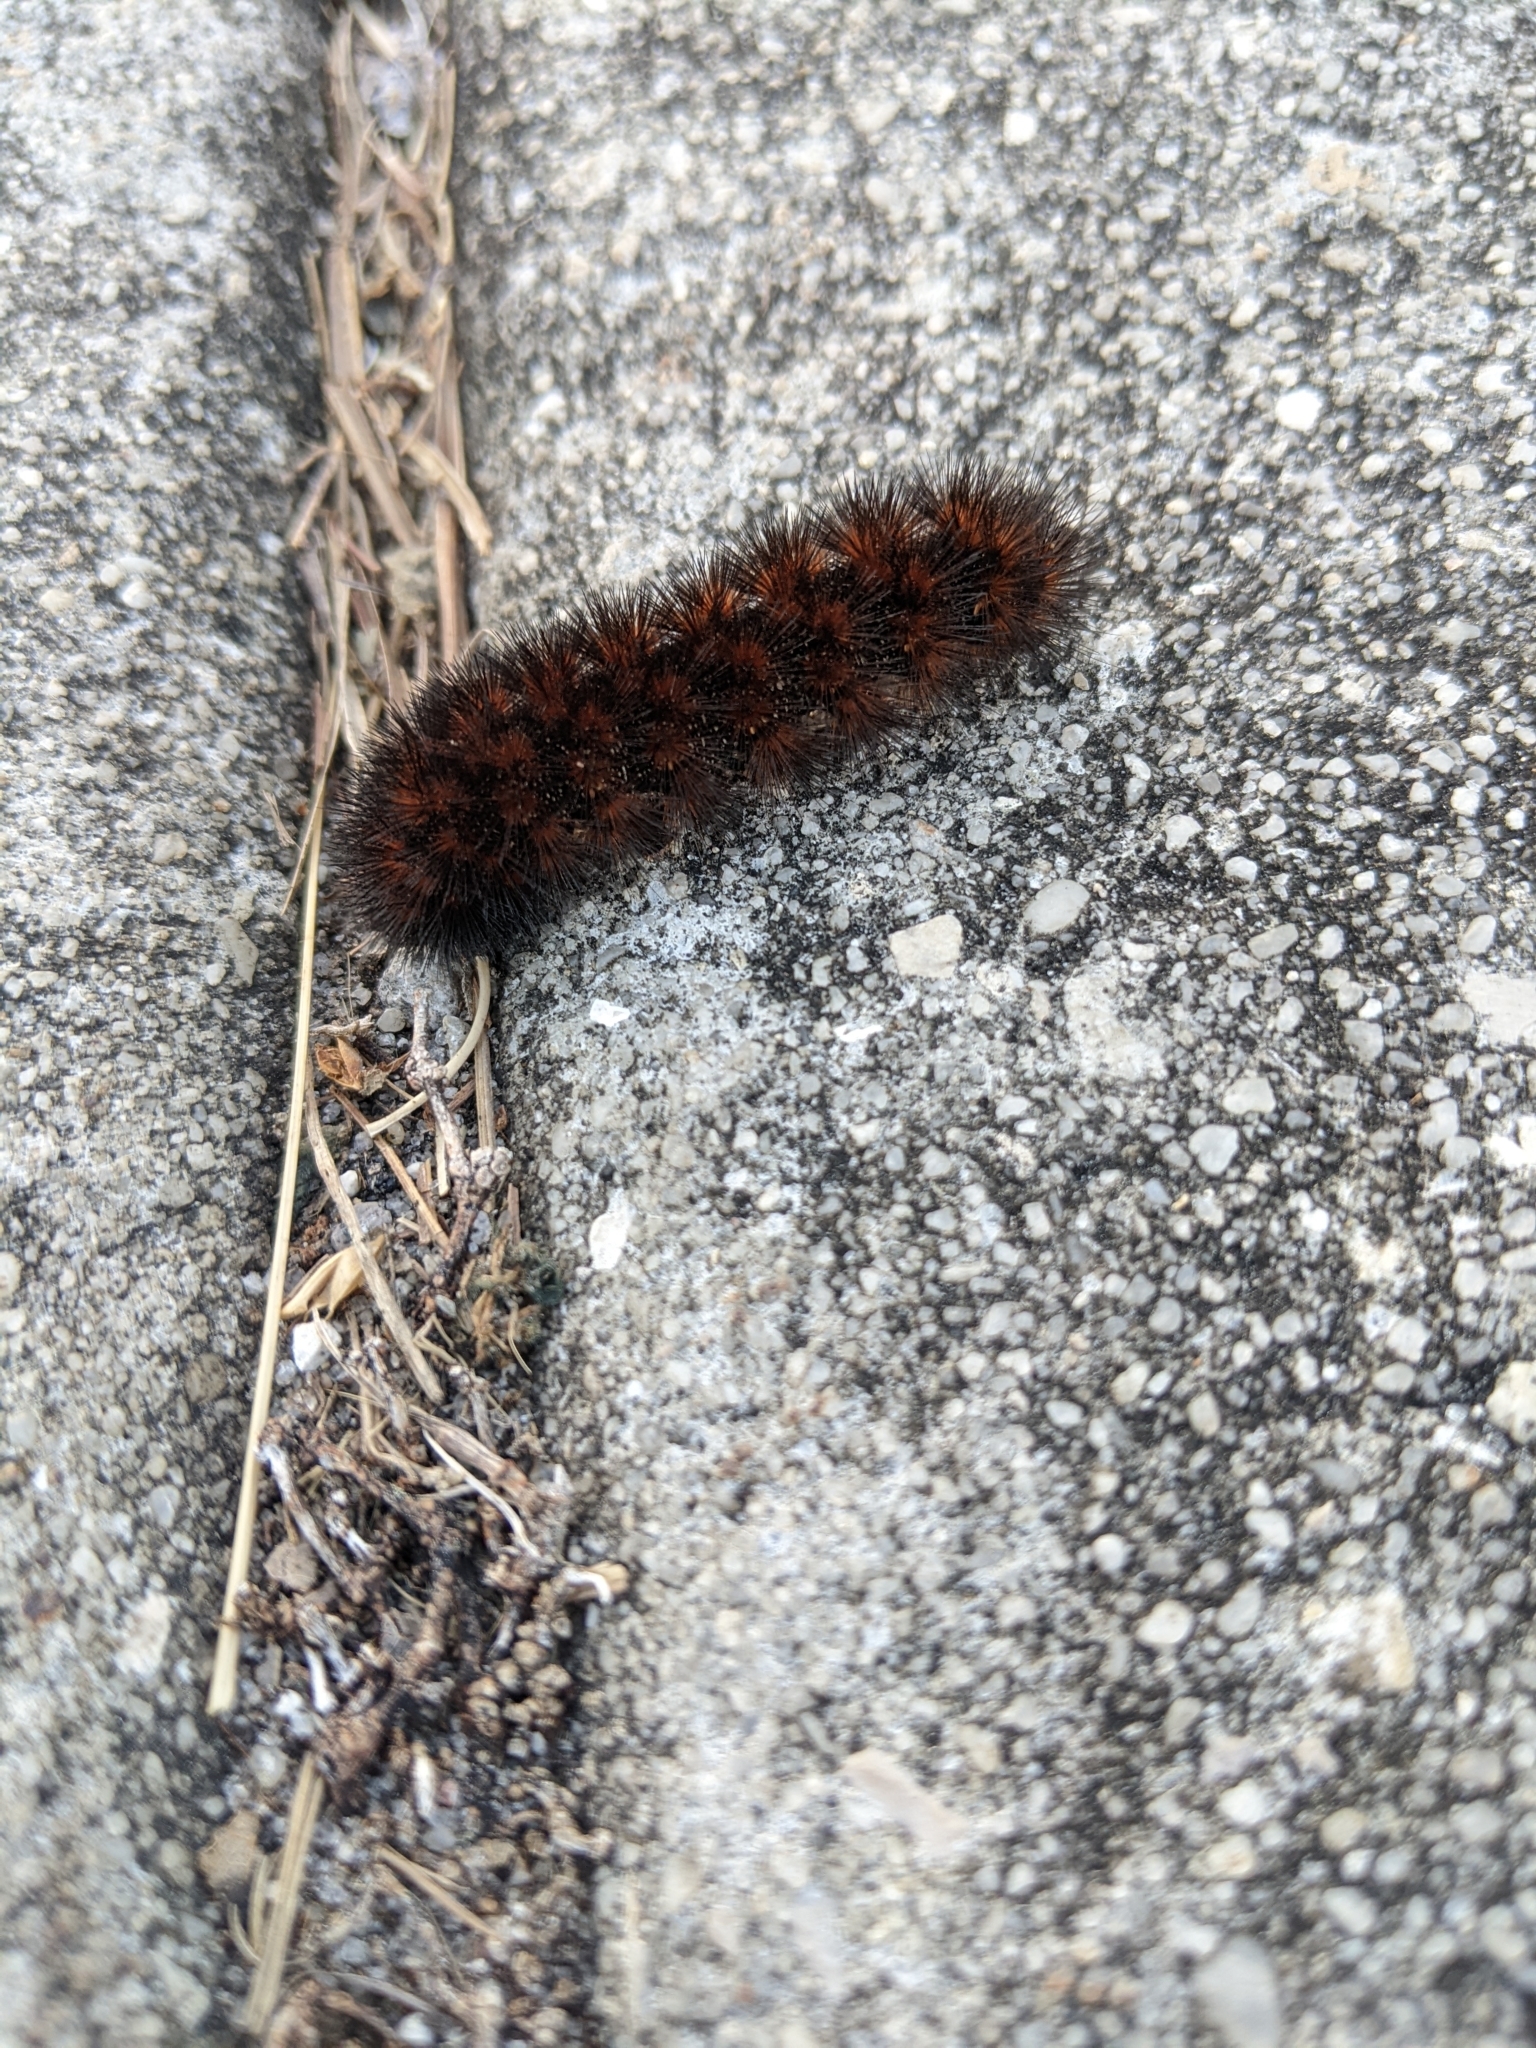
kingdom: Animalia
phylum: Arthropoda
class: Insecta
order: Lepidoptera
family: Erebidae
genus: Pyrrharctia
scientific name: Pyrrharctia isabella
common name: Isabella tiger moth
